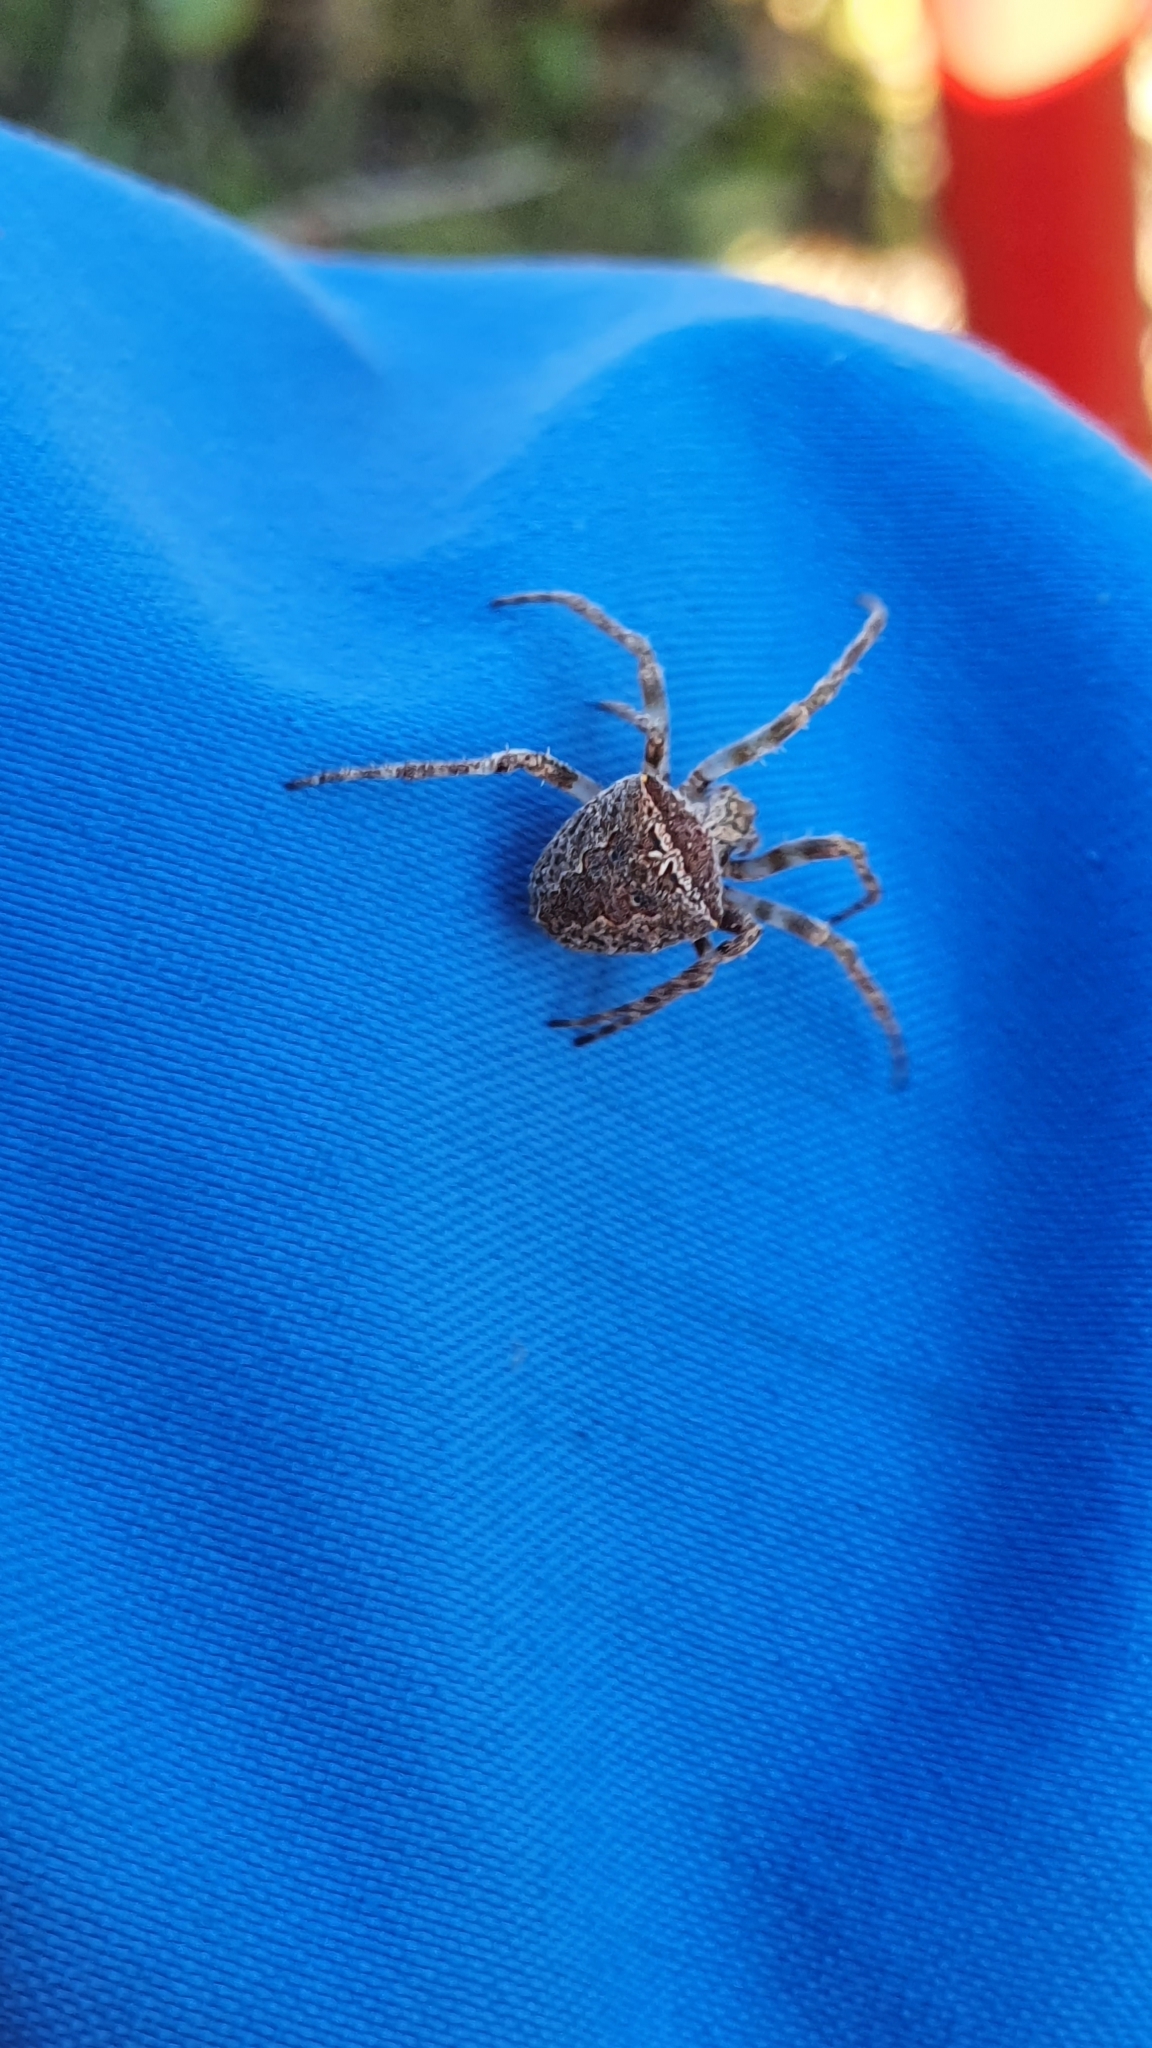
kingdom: Animalia
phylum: Arthropoda
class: Arachnida
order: Araneae
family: Araneidae
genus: Novakiella
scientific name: Novakiella trituberculosa
